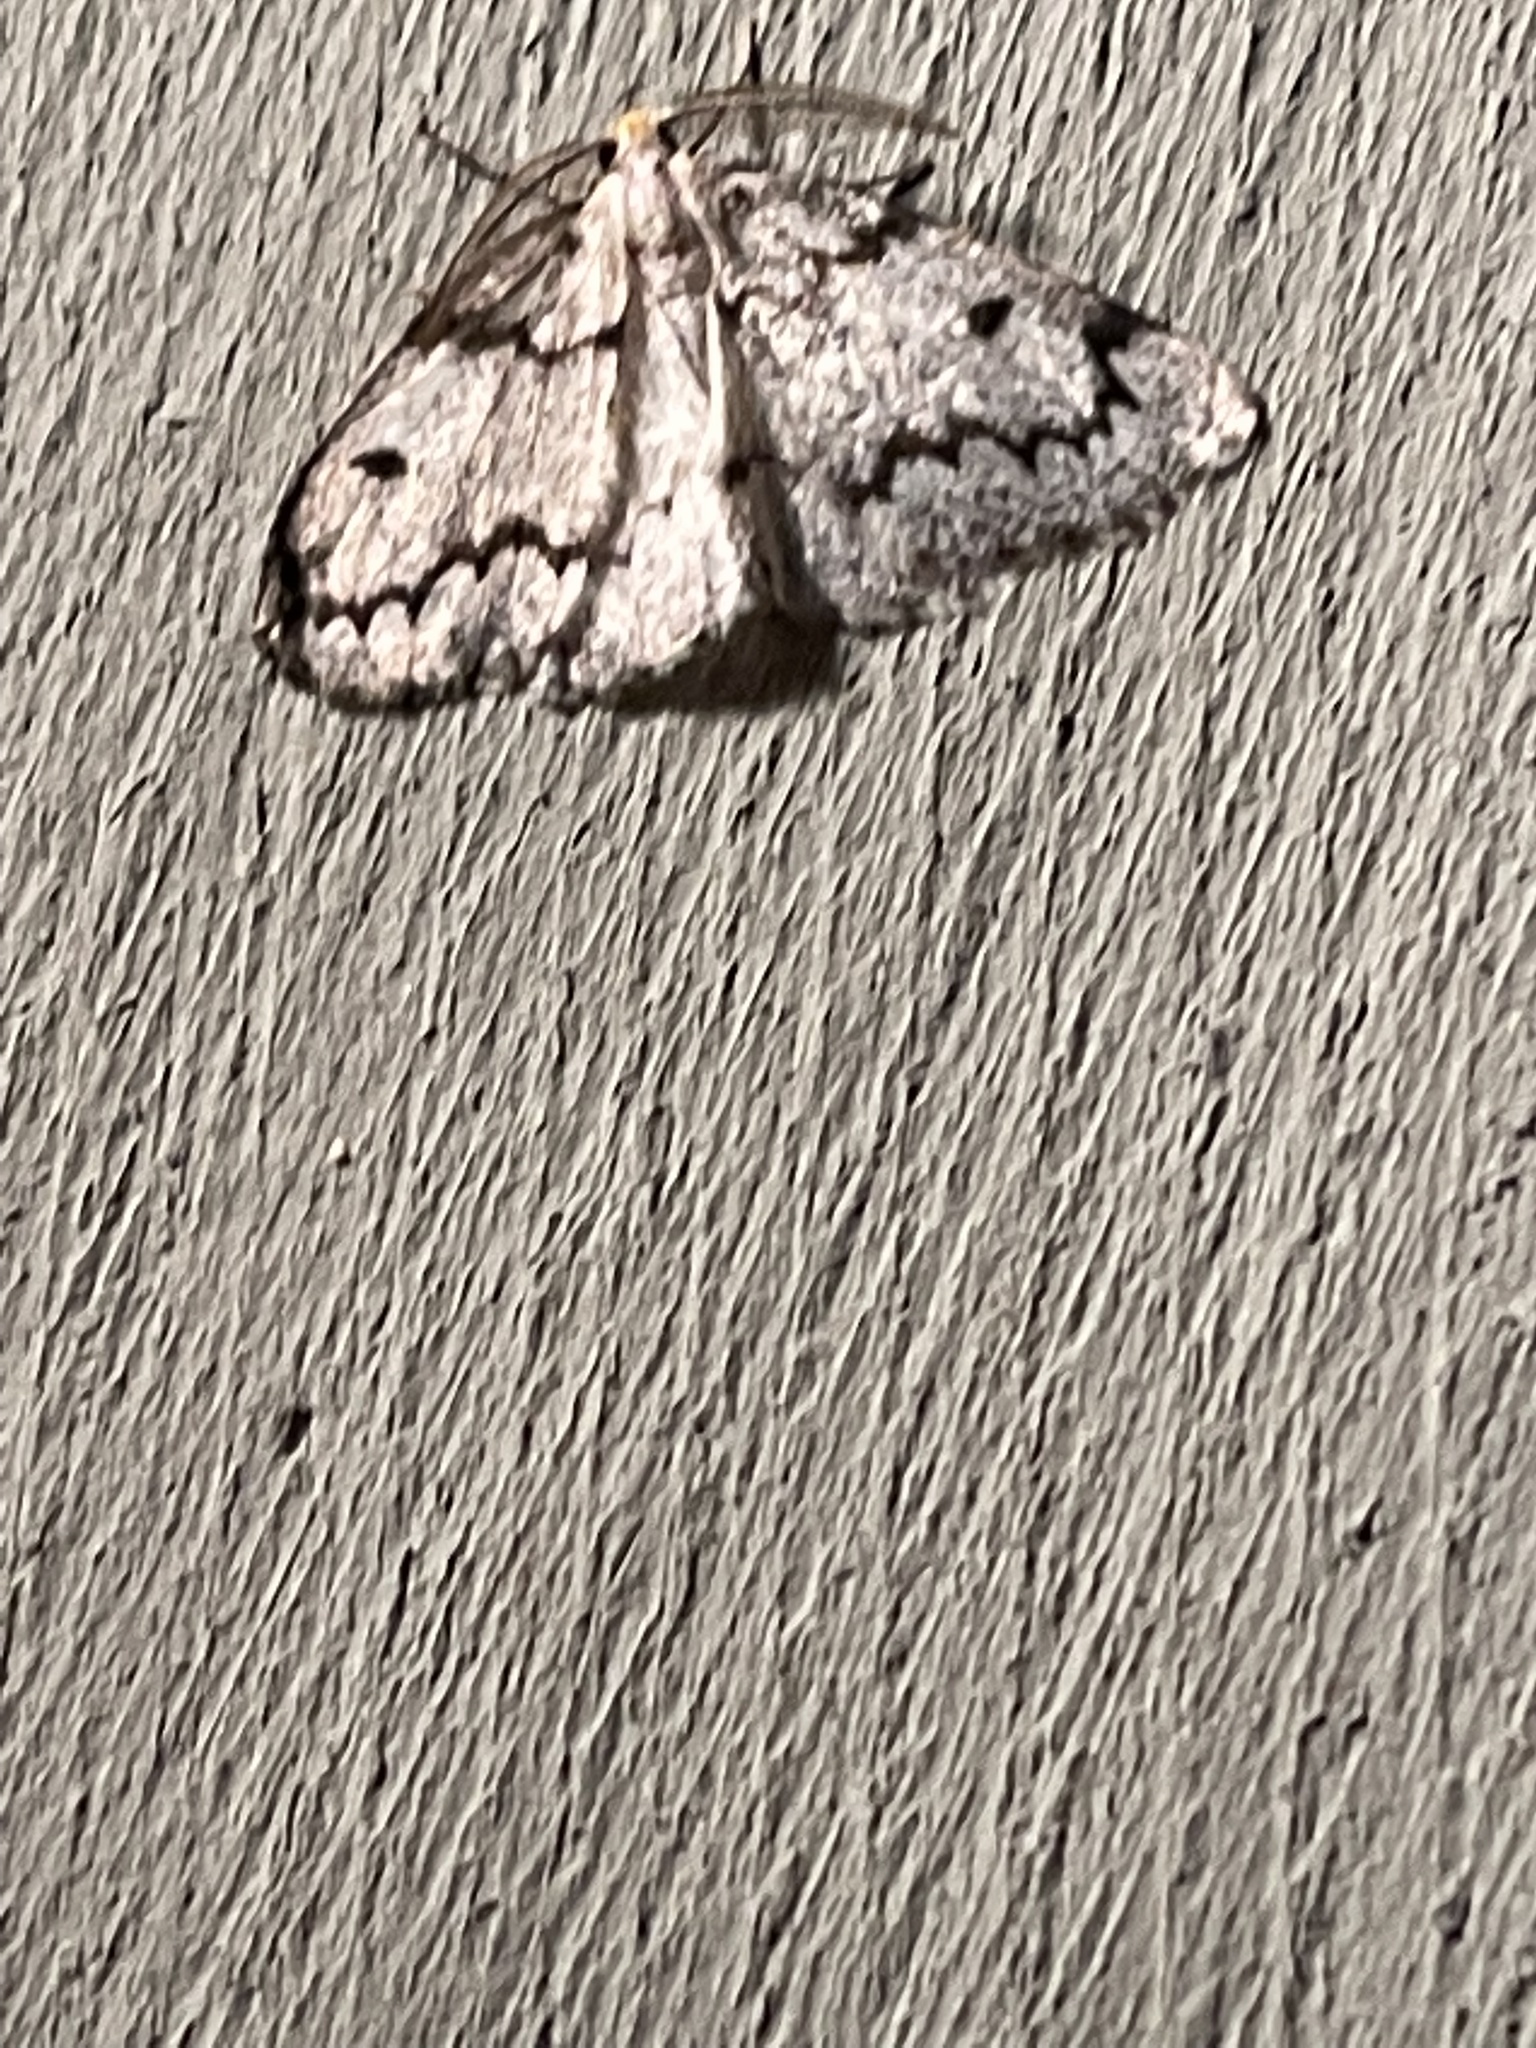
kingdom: Animalia
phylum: Arthropoda
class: Insecta
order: Lepidoptera
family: Geometridae
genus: Nepytia
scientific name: Nepytia canosaria
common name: False hemlock looper
